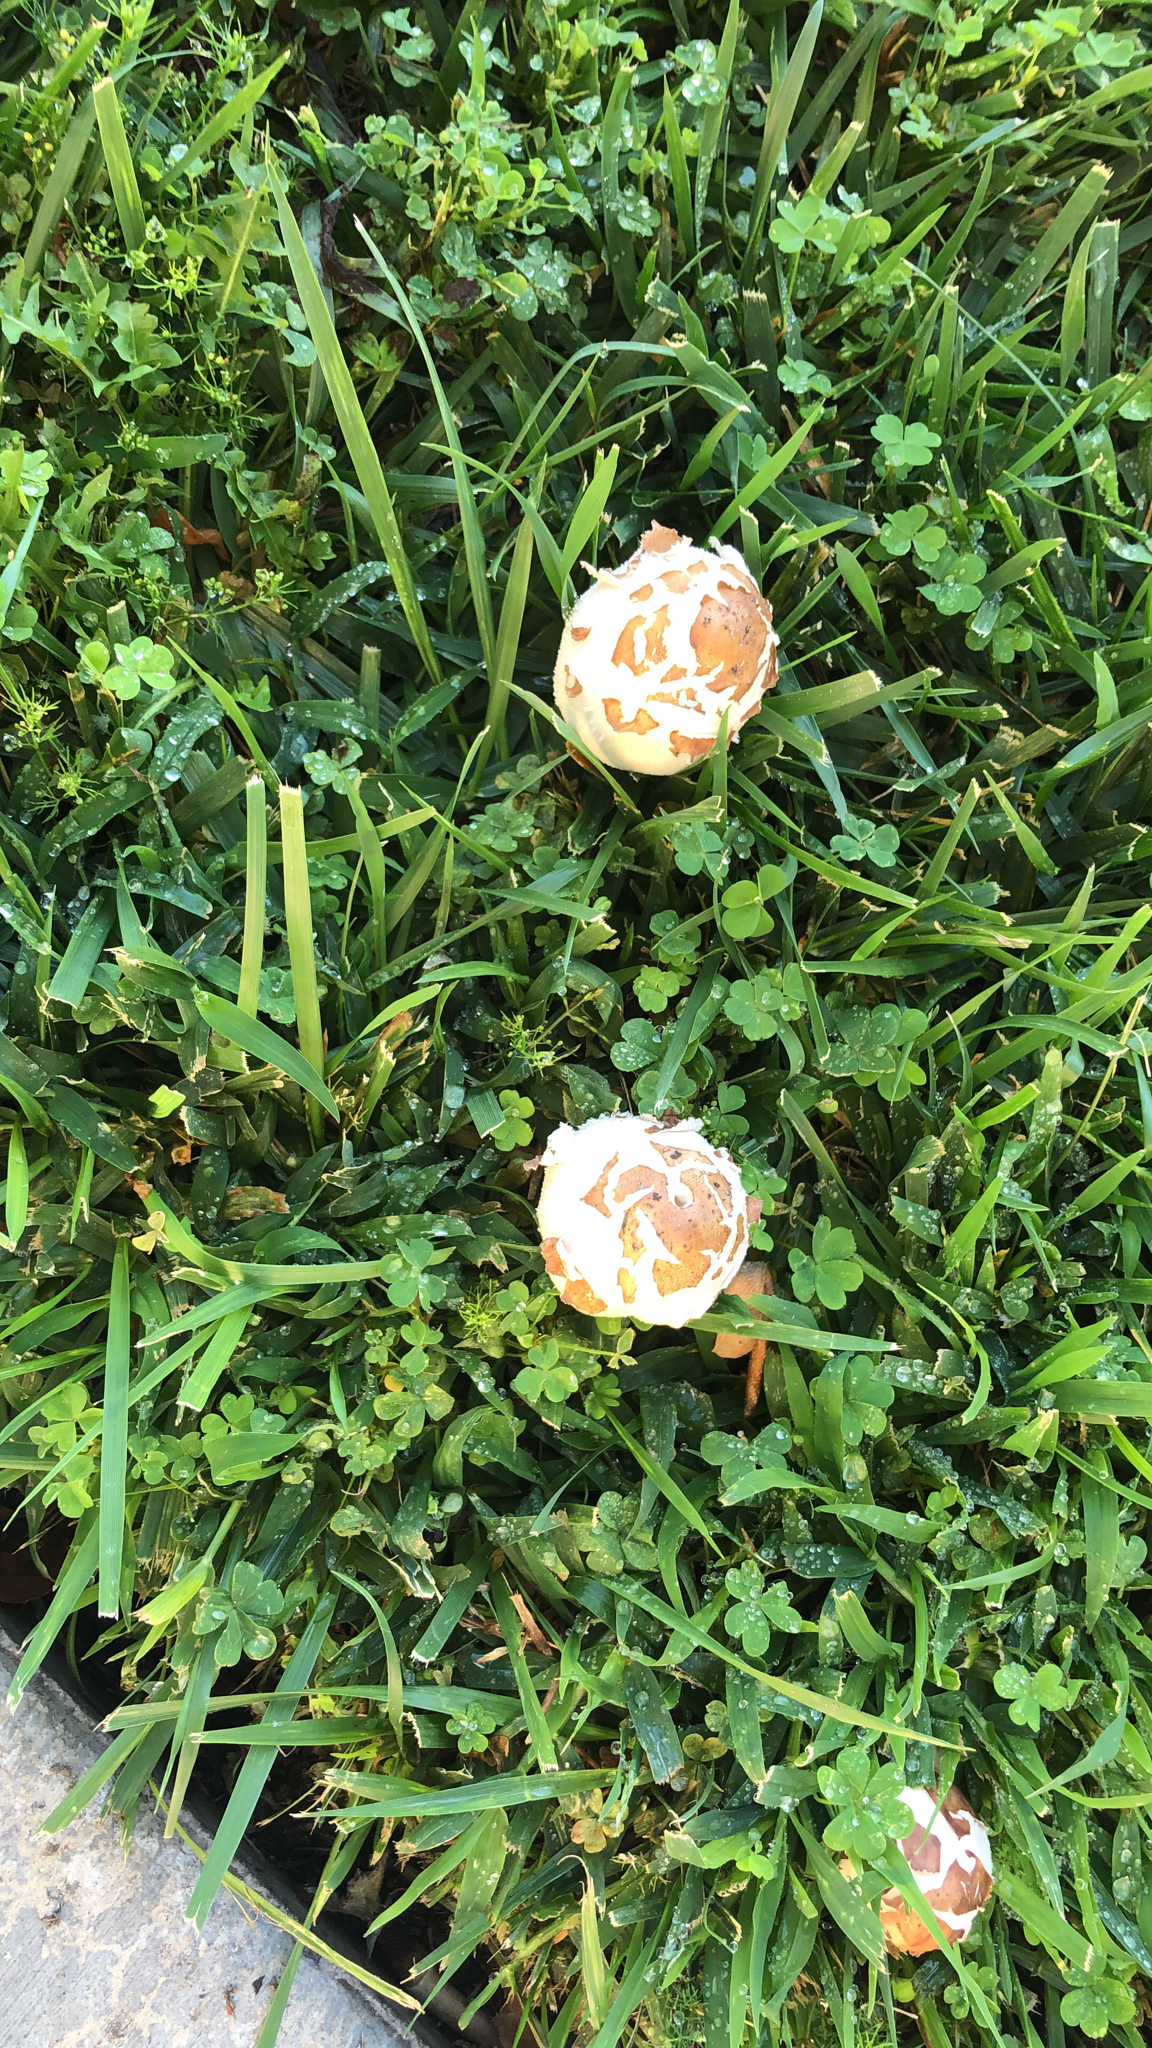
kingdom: Fungi
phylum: Basidiomycota
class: Agaricomycetes
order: Agaricales
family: Agaricaceae
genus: Chlorophyllum
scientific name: Chlorophyllum molybdites
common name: False parasol
